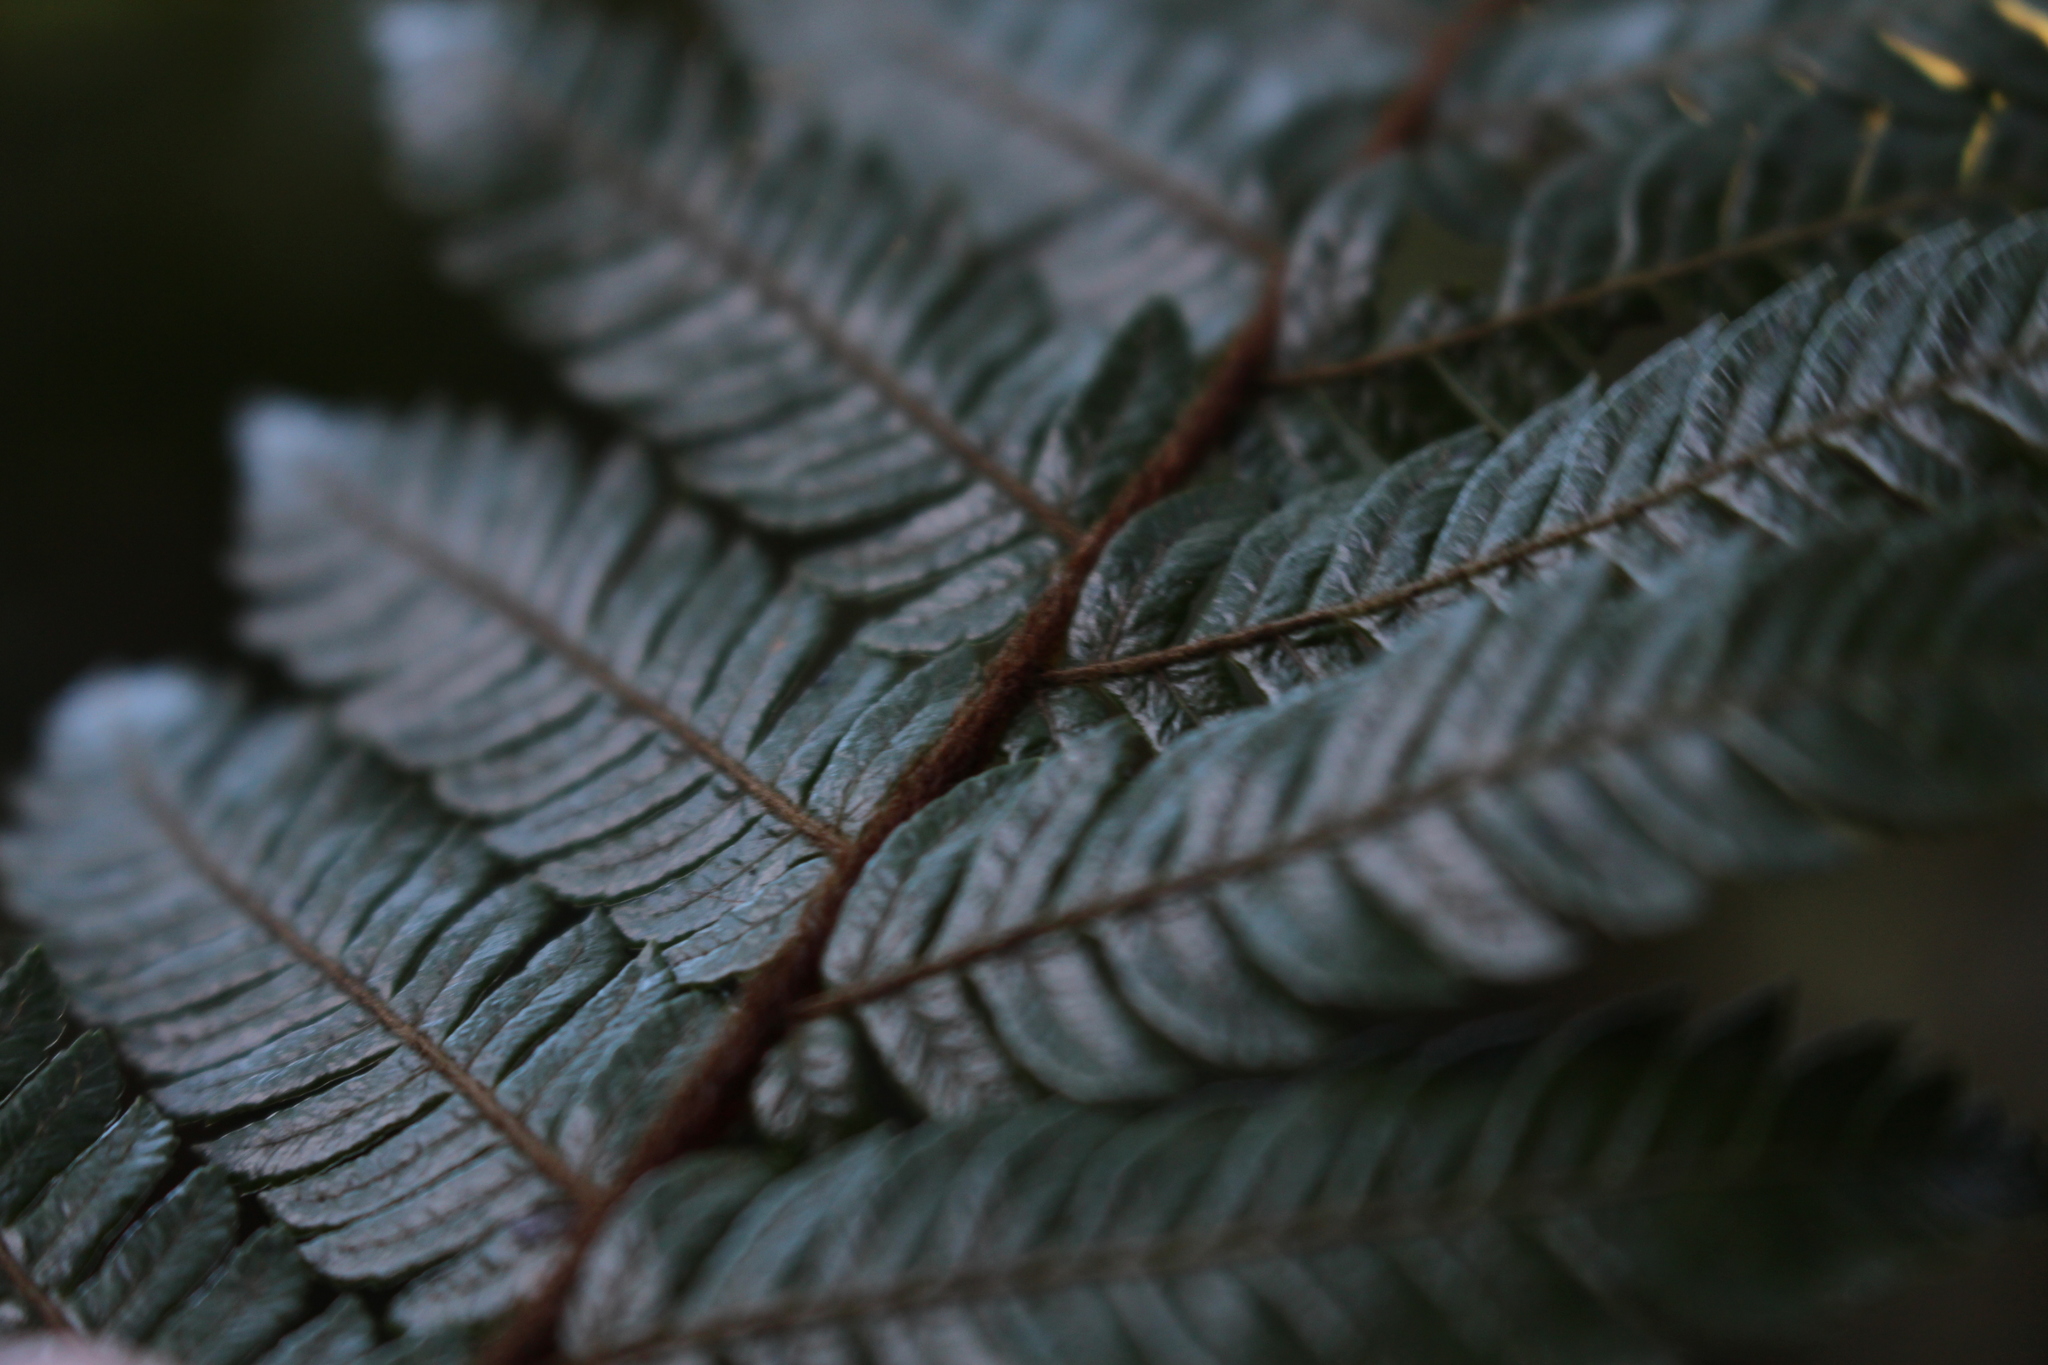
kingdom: Plantae
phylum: Tracheophyta
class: Polypodiopsida
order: Cyatheales
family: Cyatheaceae
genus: Alsophila
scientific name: Alsophila smithii
